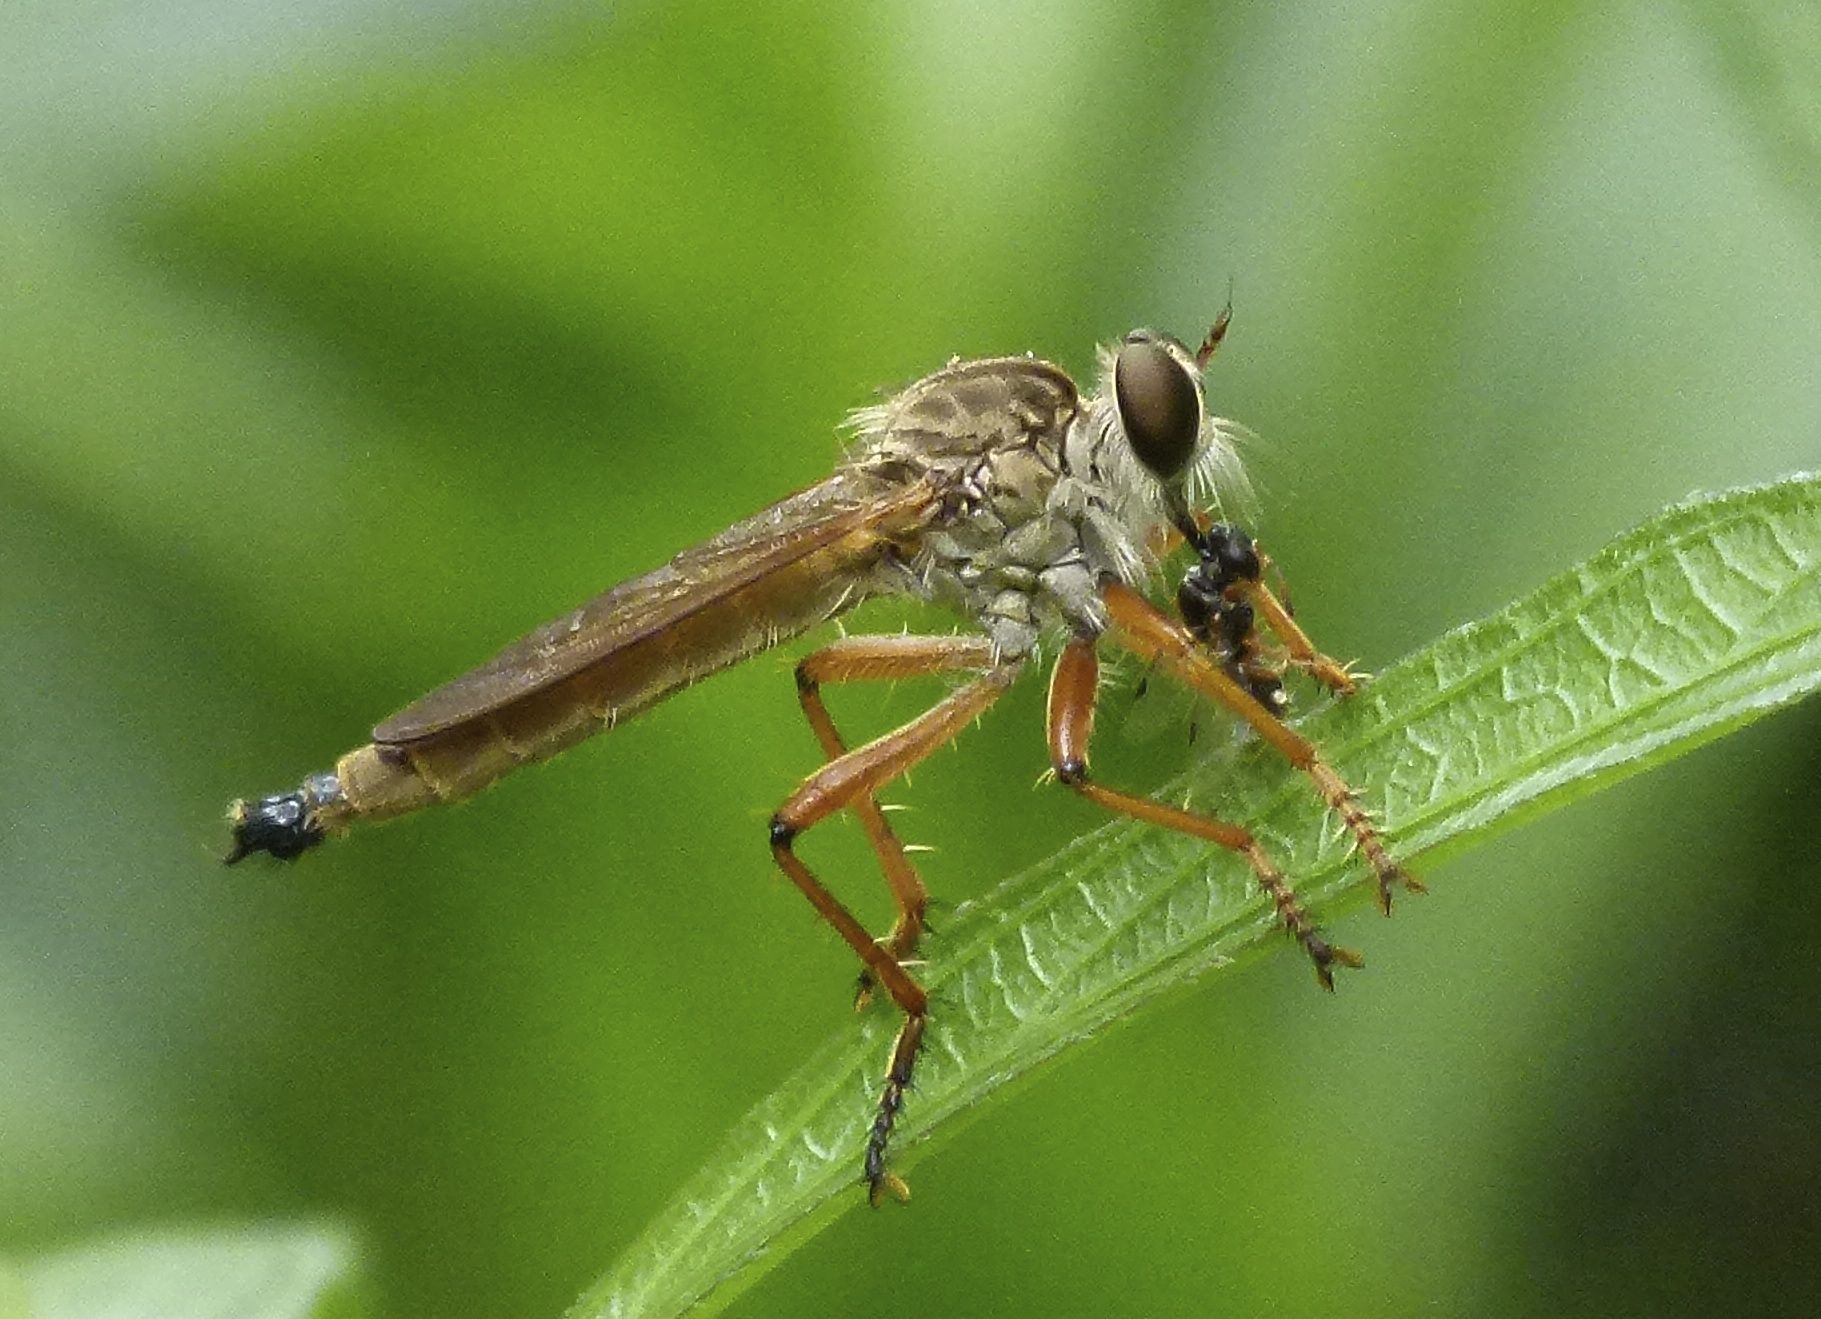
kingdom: Animalia
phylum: Arthropoda
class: Insecta
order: Diptera
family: Asilidae
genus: Zosteria
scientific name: Zosteria fulvipubescens
